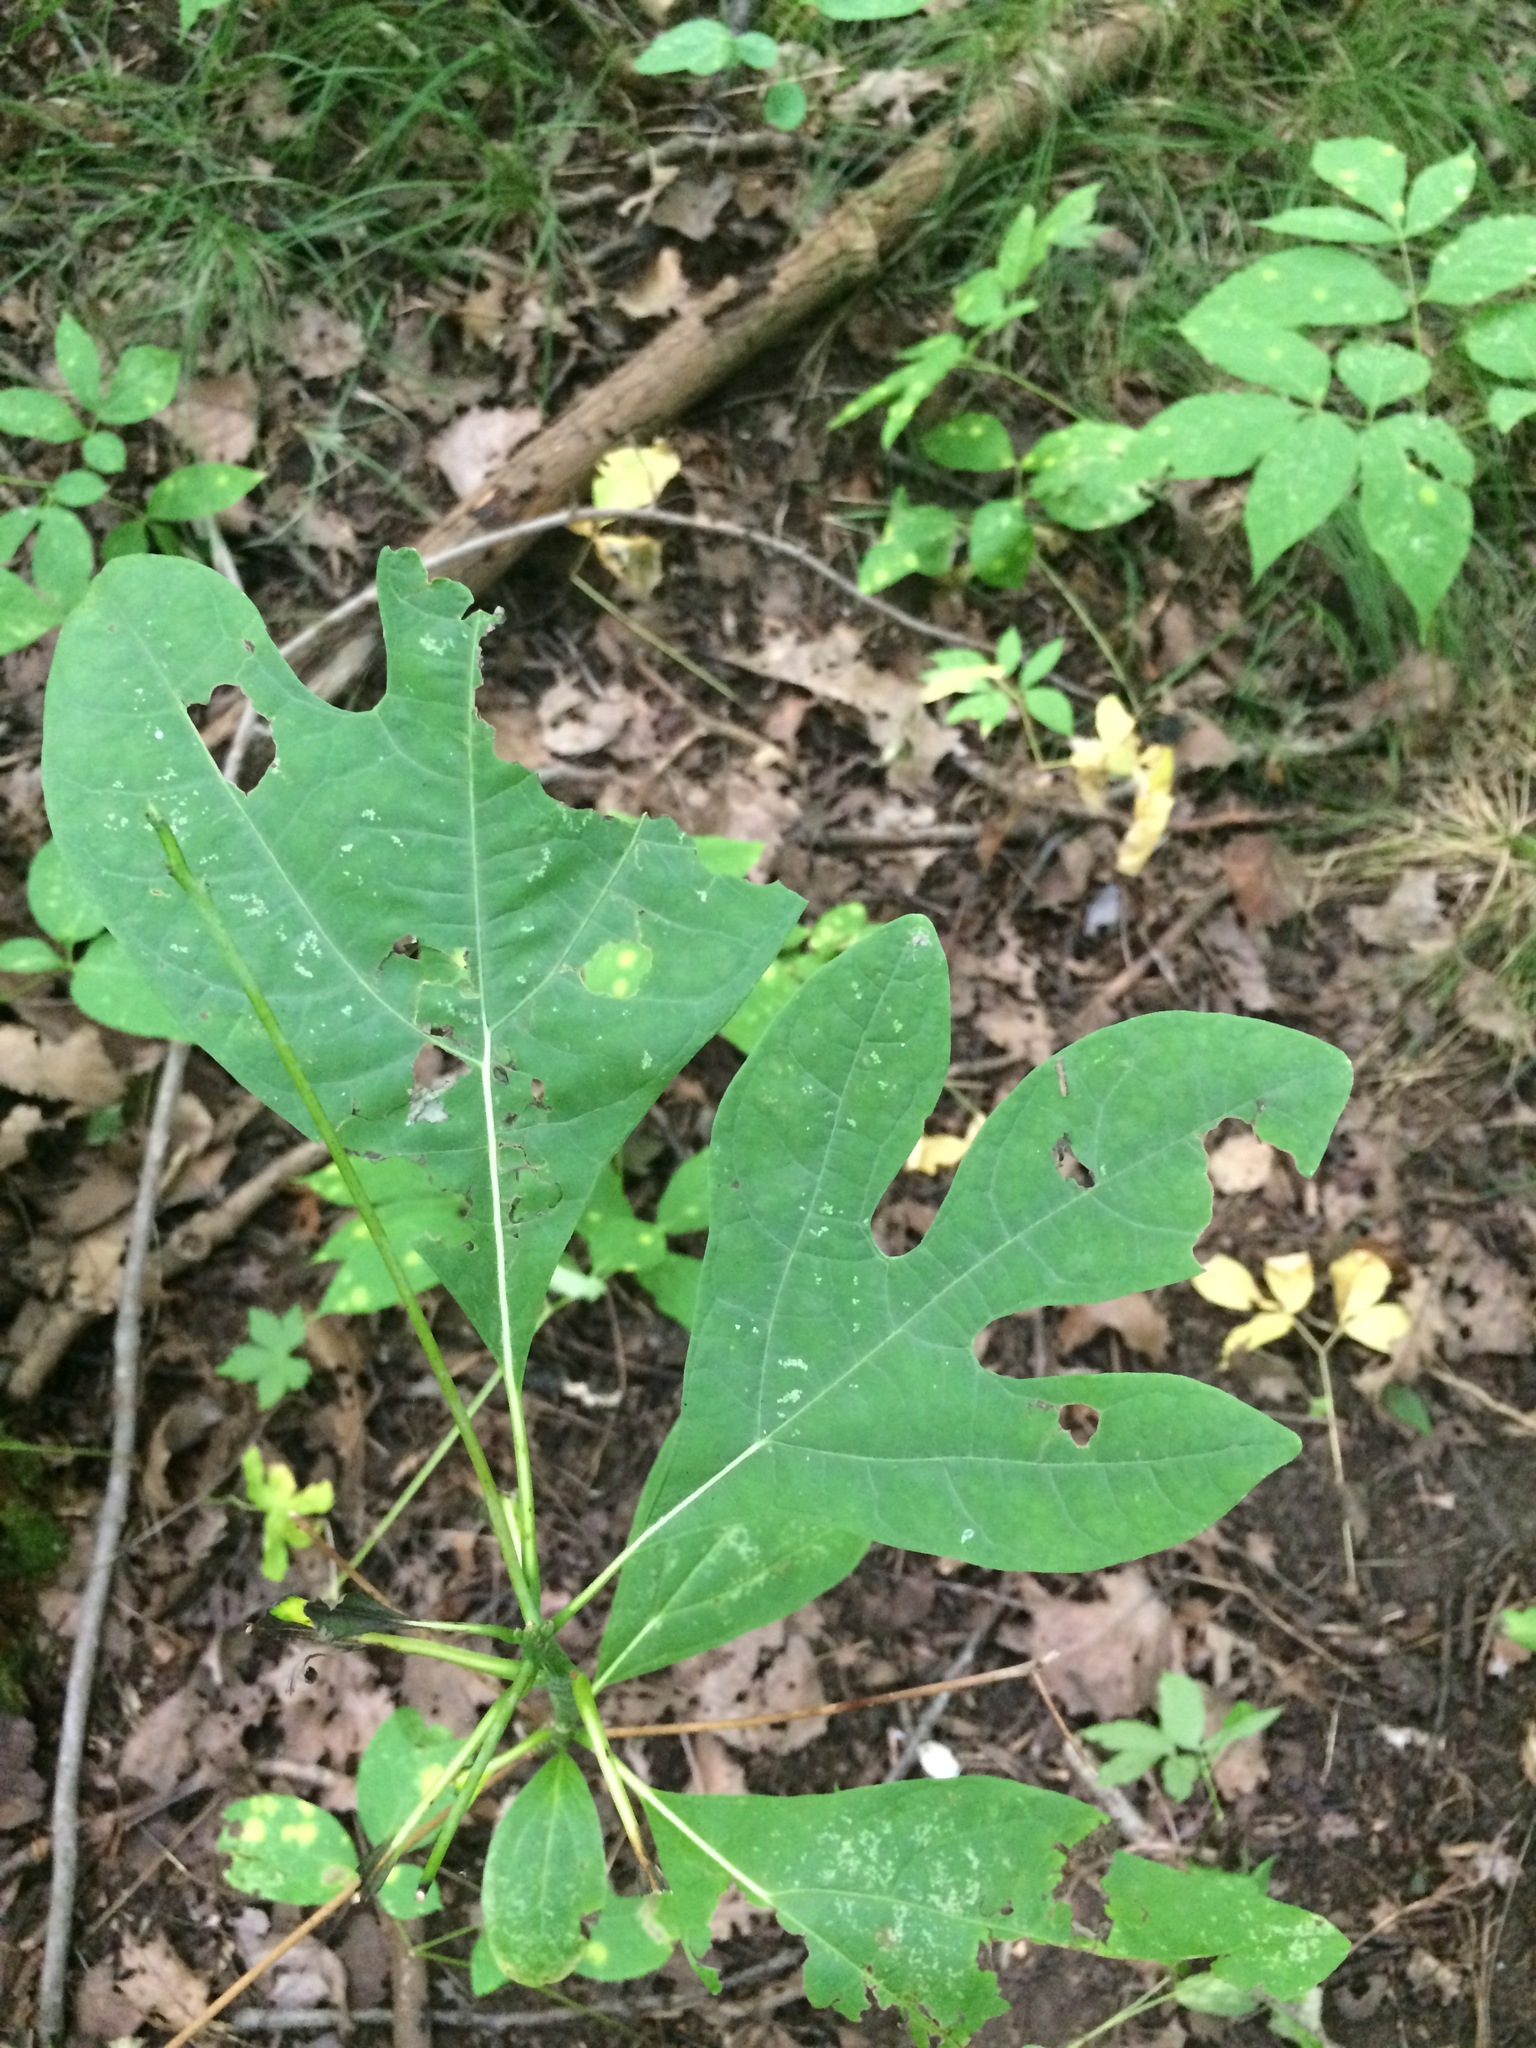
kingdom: Plantae
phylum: Tracheophyta
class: Magnoliopsida
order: Laurales
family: Lauraceae
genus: Sassafras
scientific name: Sassafras albidum
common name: Sassafras
